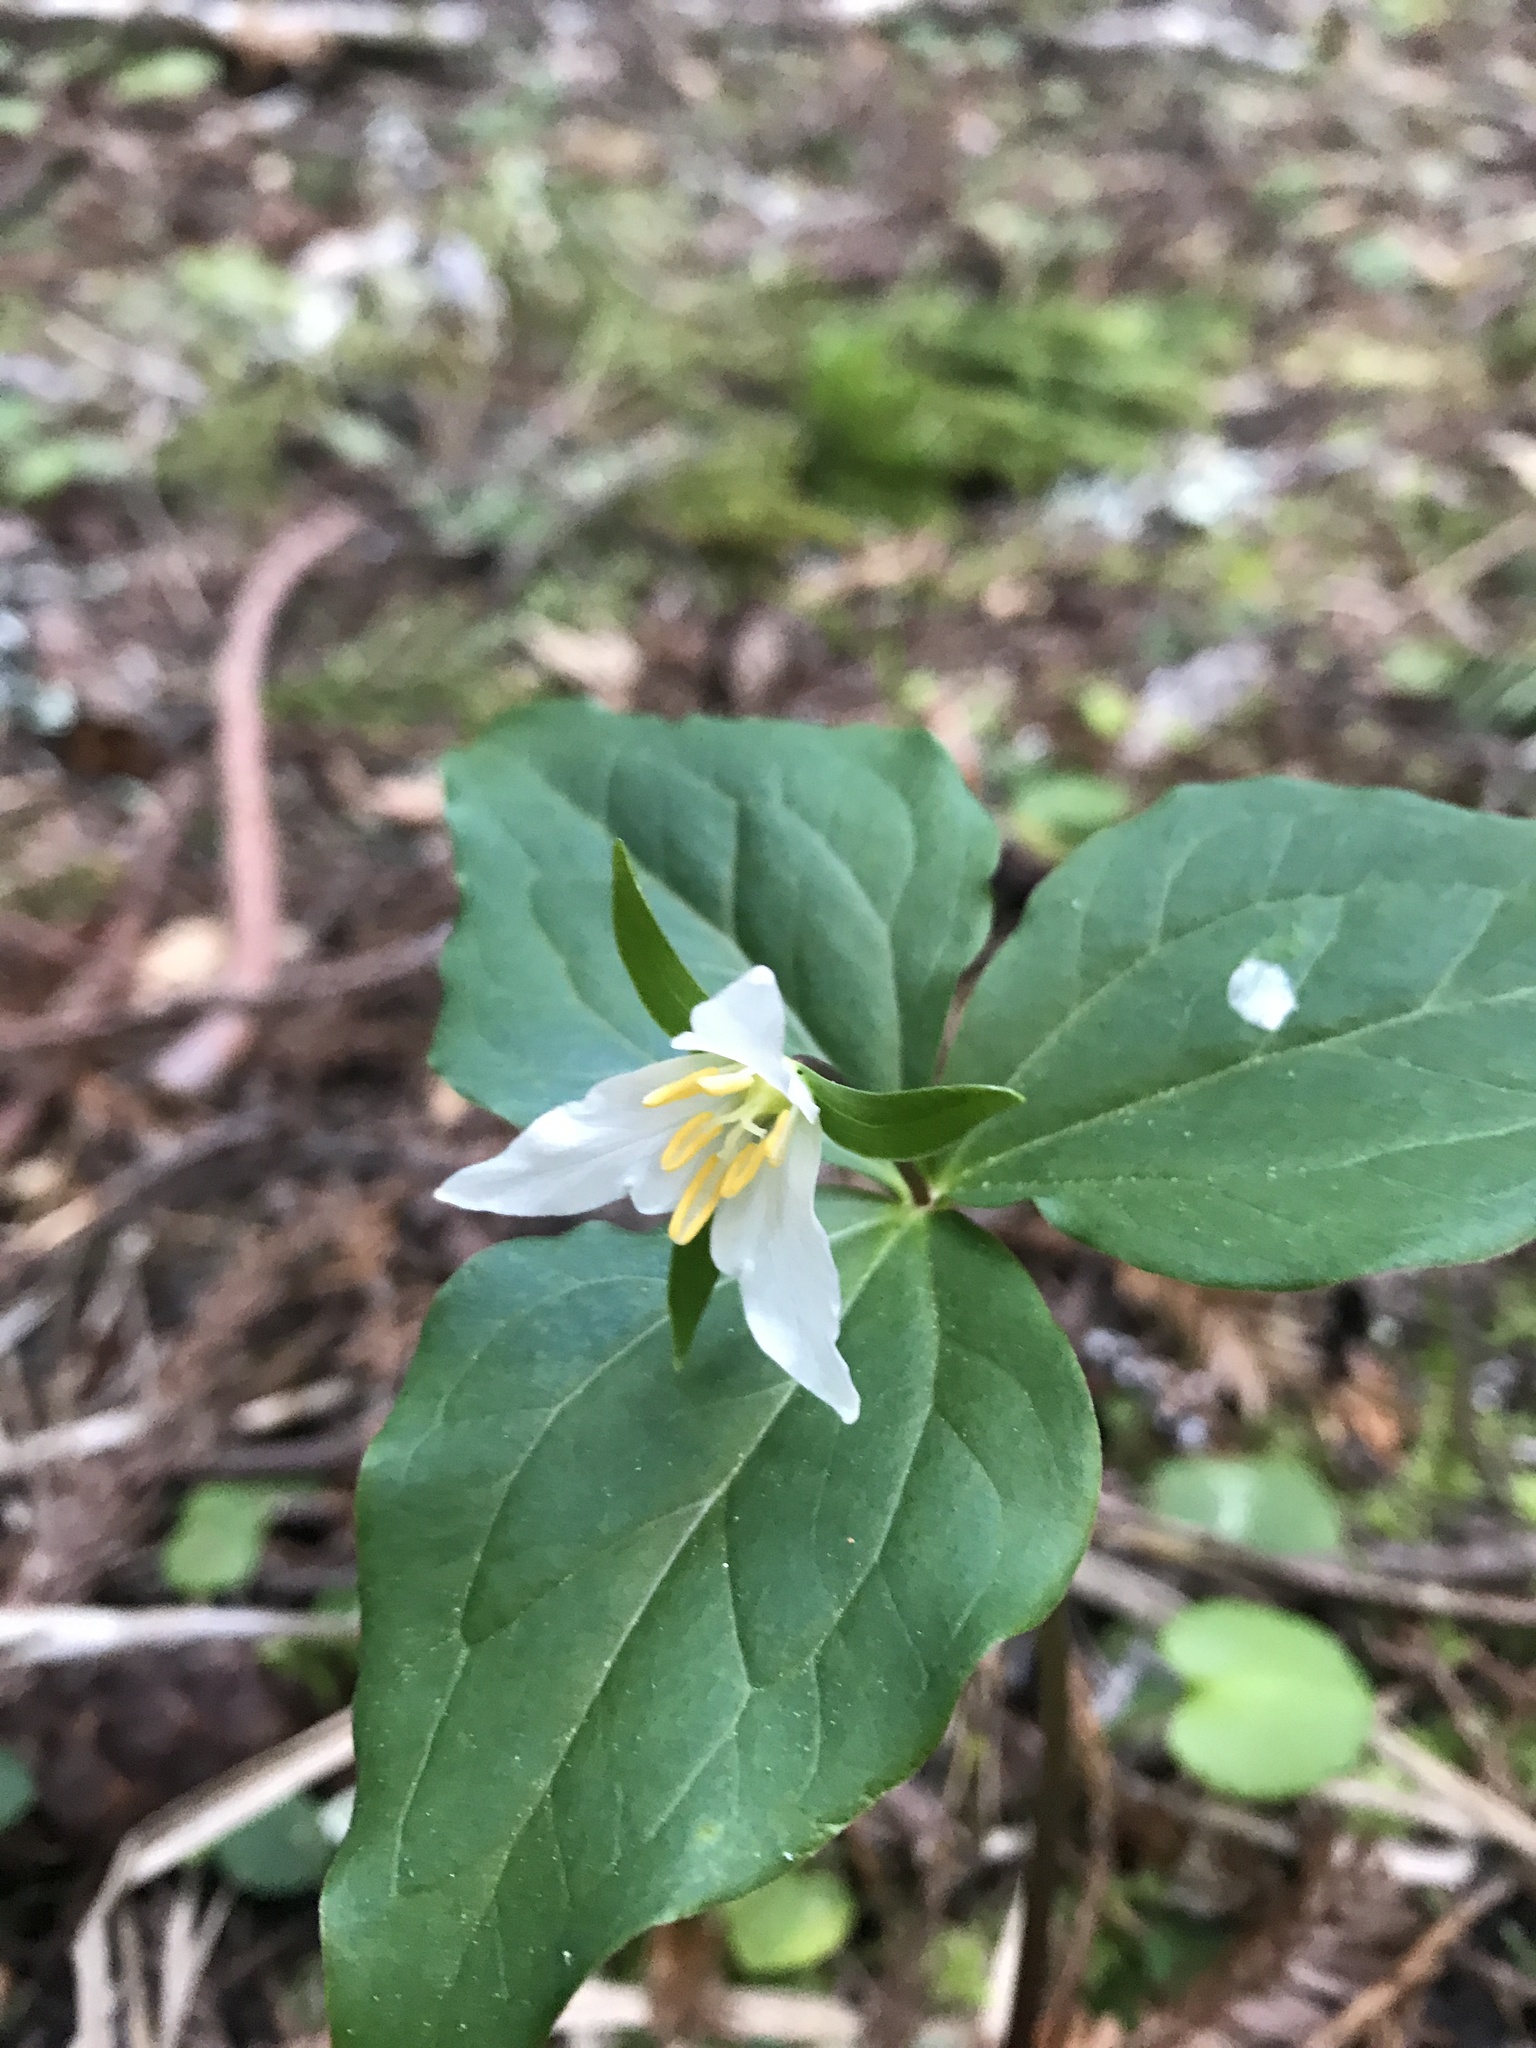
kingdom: Plantae
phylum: Tracheophyta
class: Liliopsida
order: Liliales
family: Melanthiaceae
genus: Trillium
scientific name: Trillium ovatum
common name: Pacific trillium
